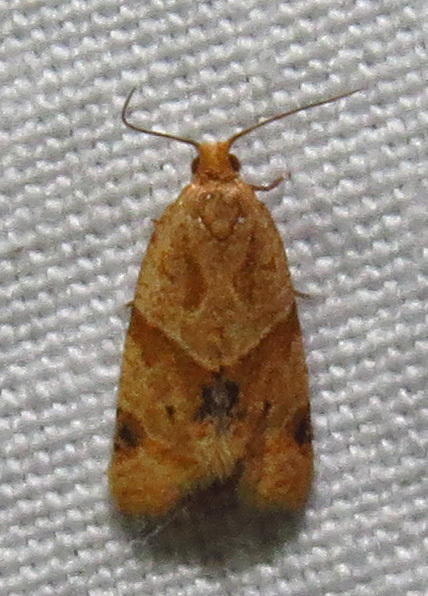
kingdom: Animalia
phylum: Arthropoda
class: Insecta
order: Lepidoptera
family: Tortricidae
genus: Clepsis
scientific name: Clepsis peritana
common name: Garden tortrix
